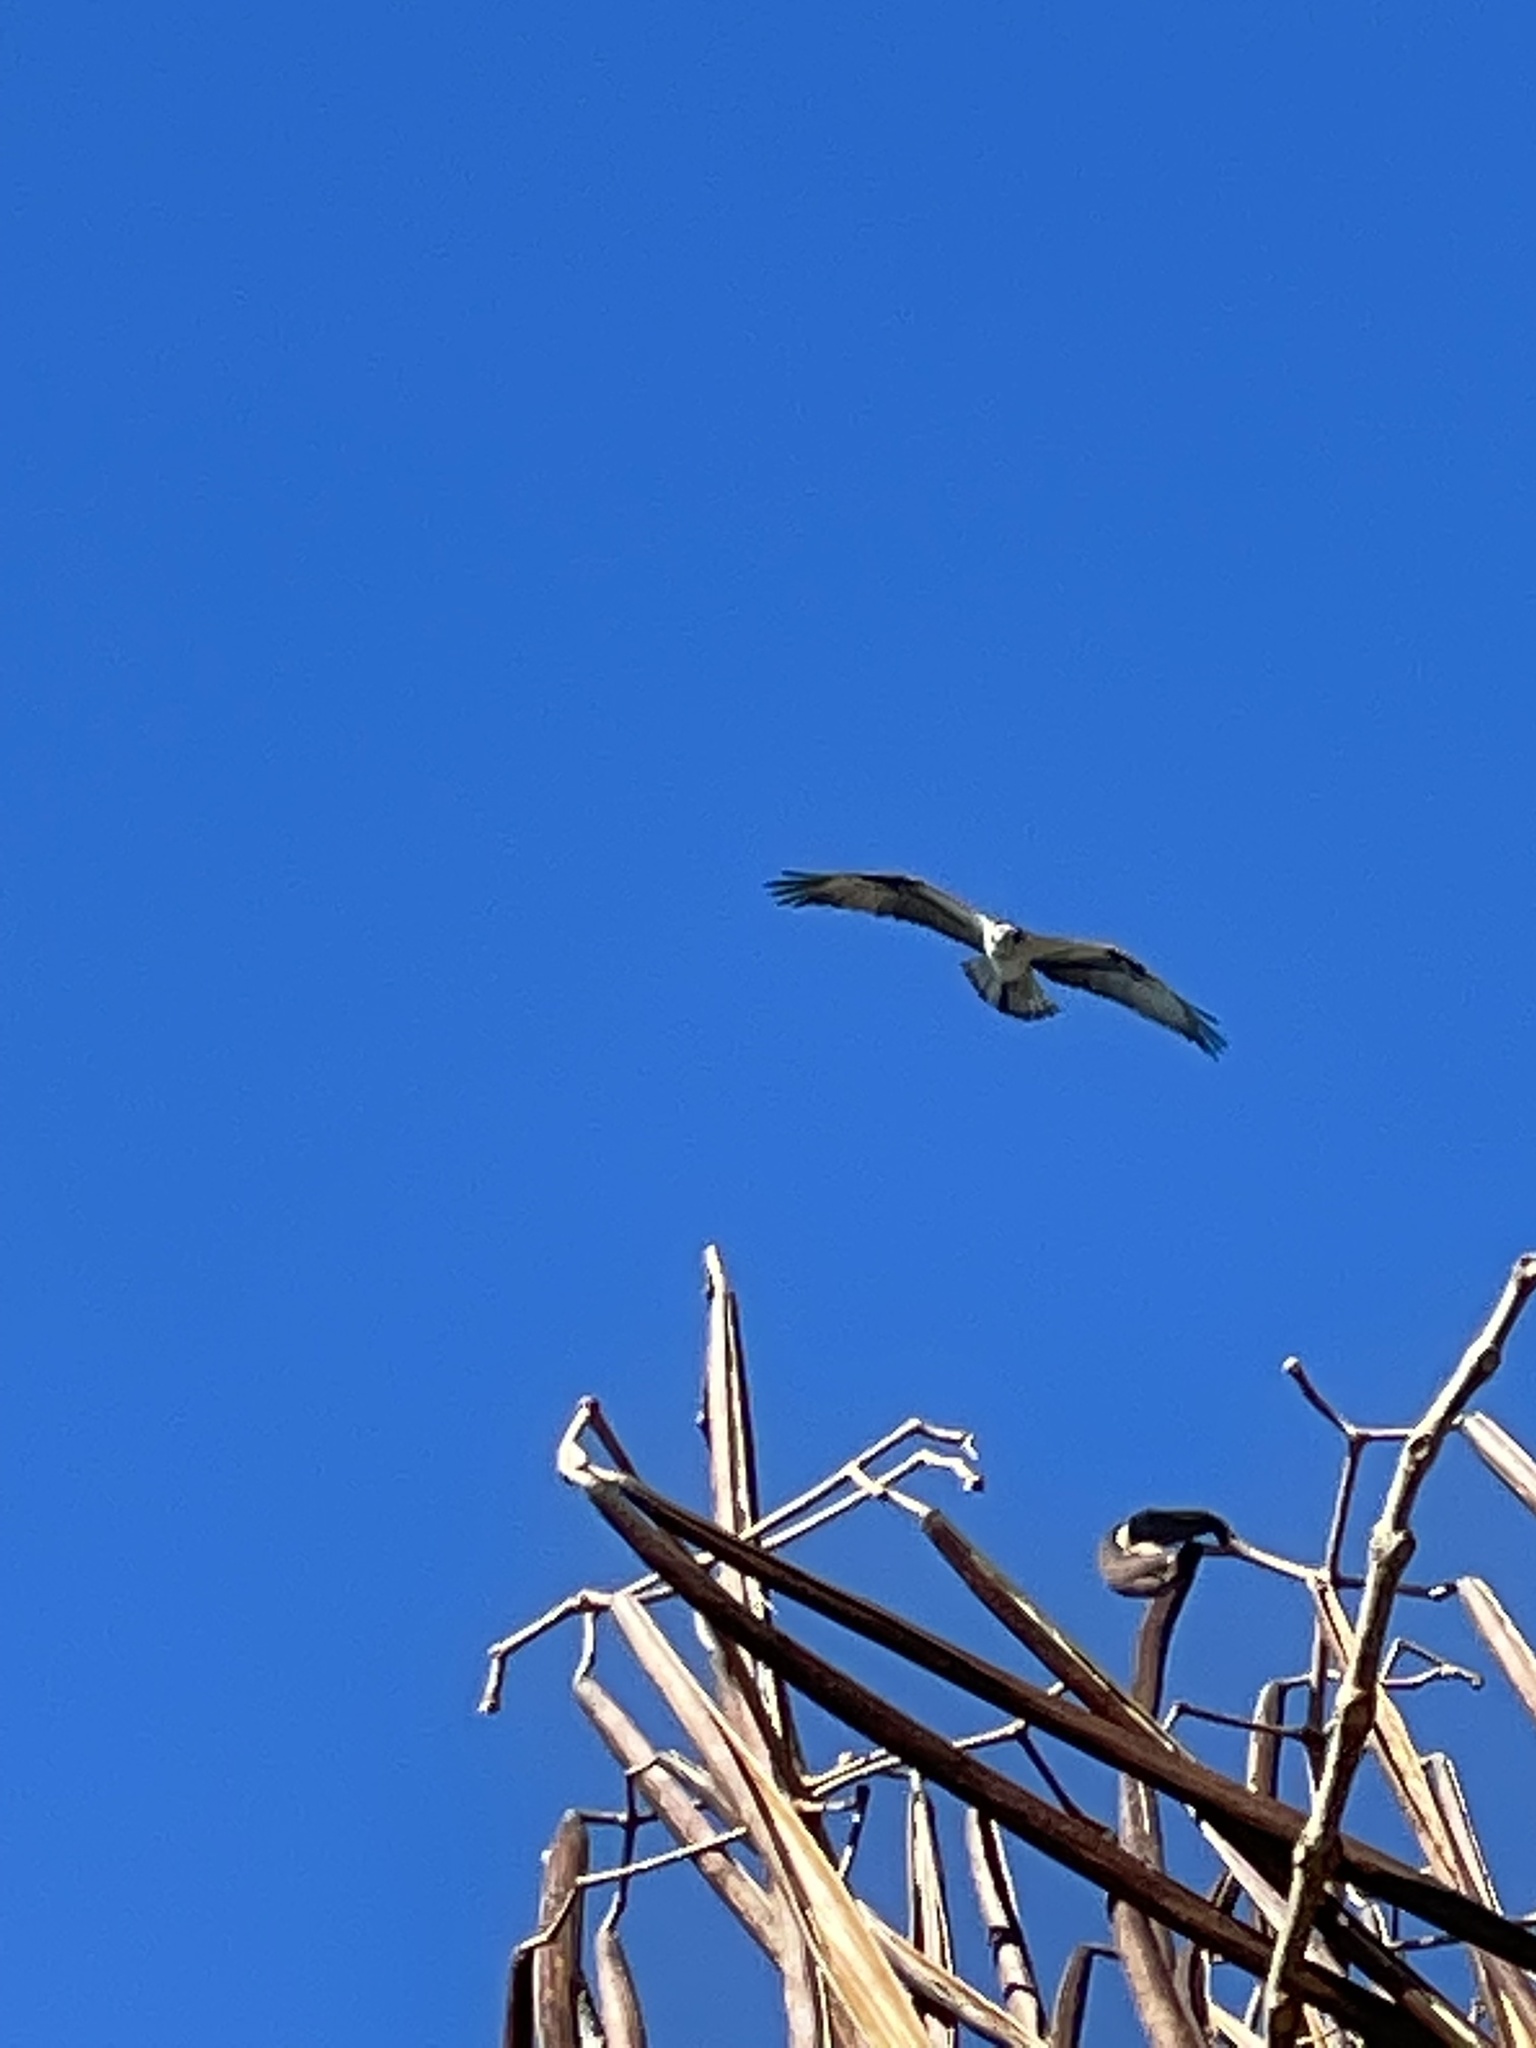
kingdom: Animalia
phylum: Chordata
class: Aves
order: Accipitriformes
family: Pandionidae
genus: Pandion
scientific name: Pandion haliaetus
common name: Osprey
